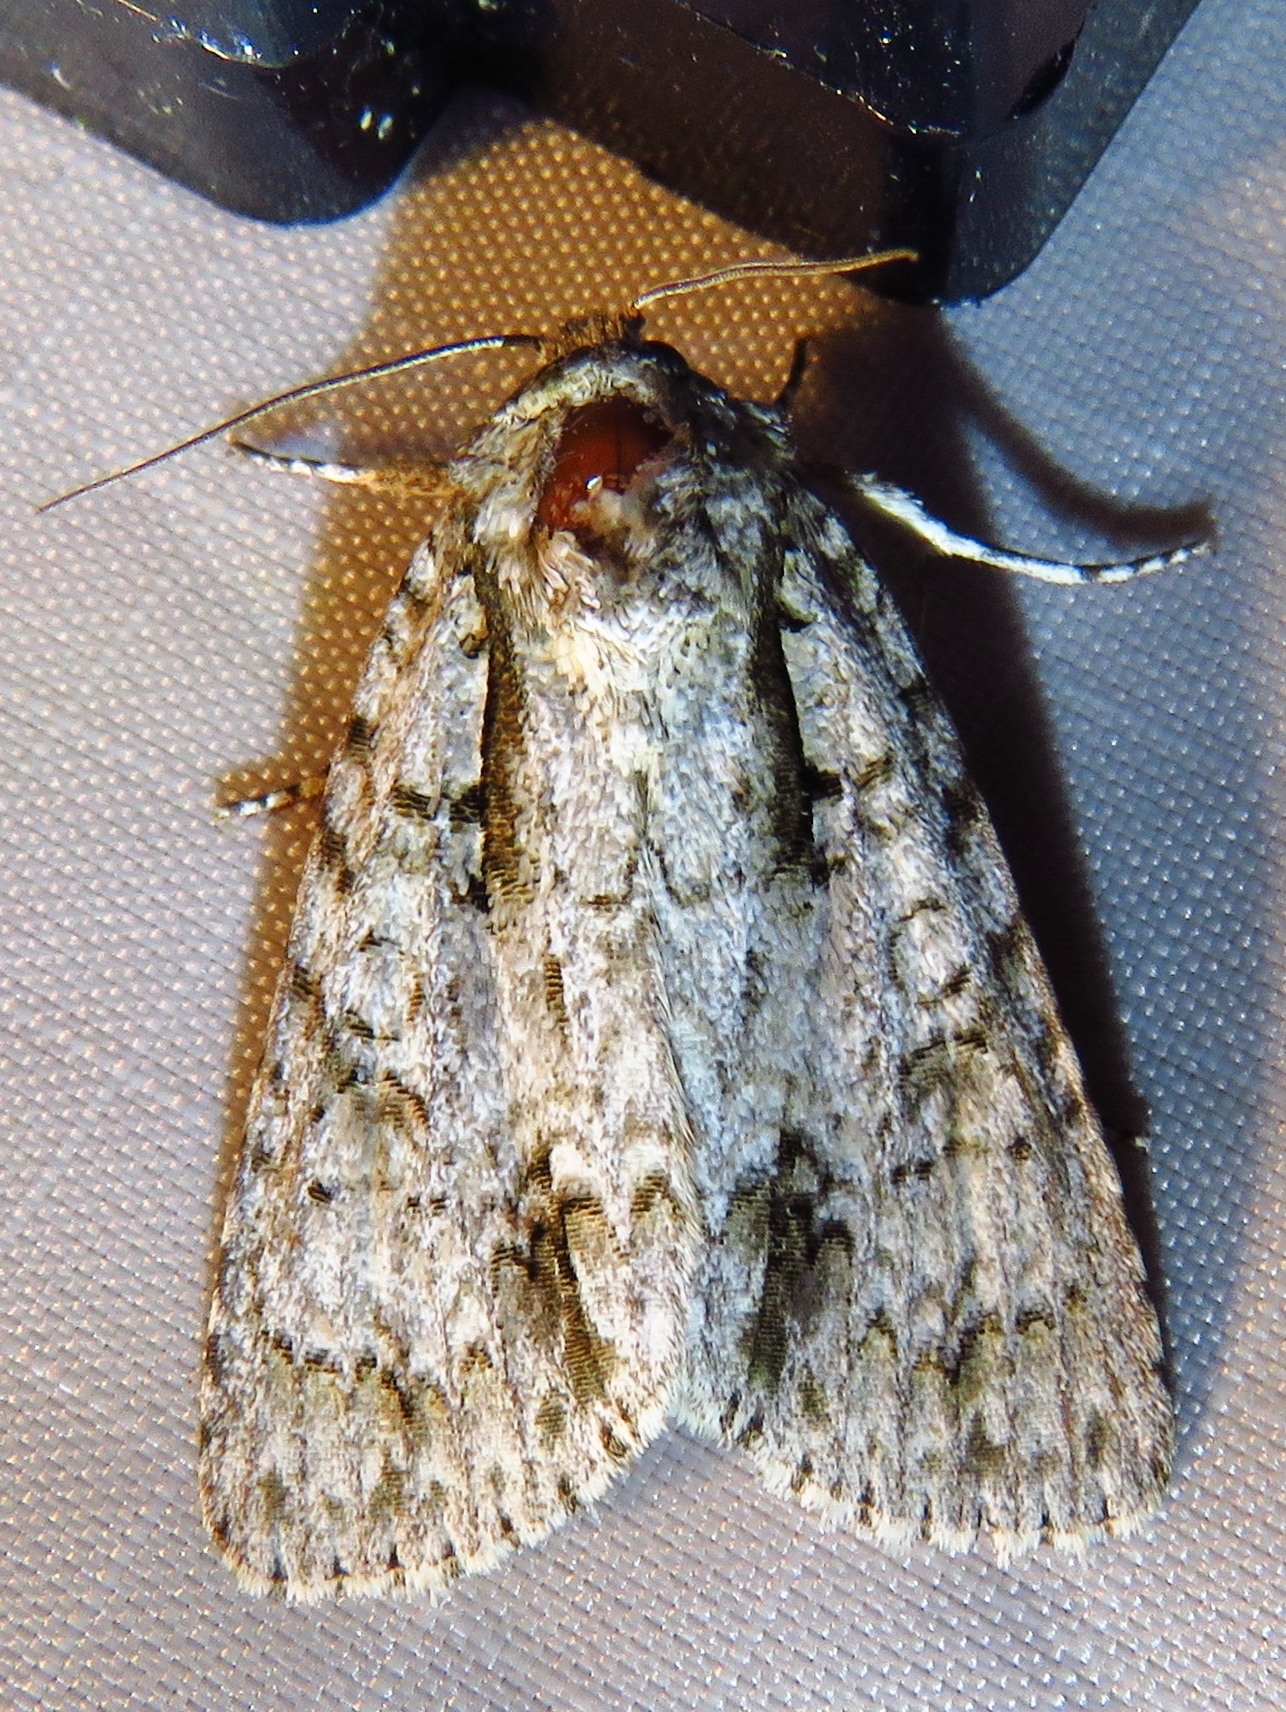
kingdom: Animalia
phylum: Arthropoda
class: Insecta
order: Lepidoptera
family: Noctuidae
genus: Acronicta
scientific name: Acronicta clarescens
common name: Clear dagger
